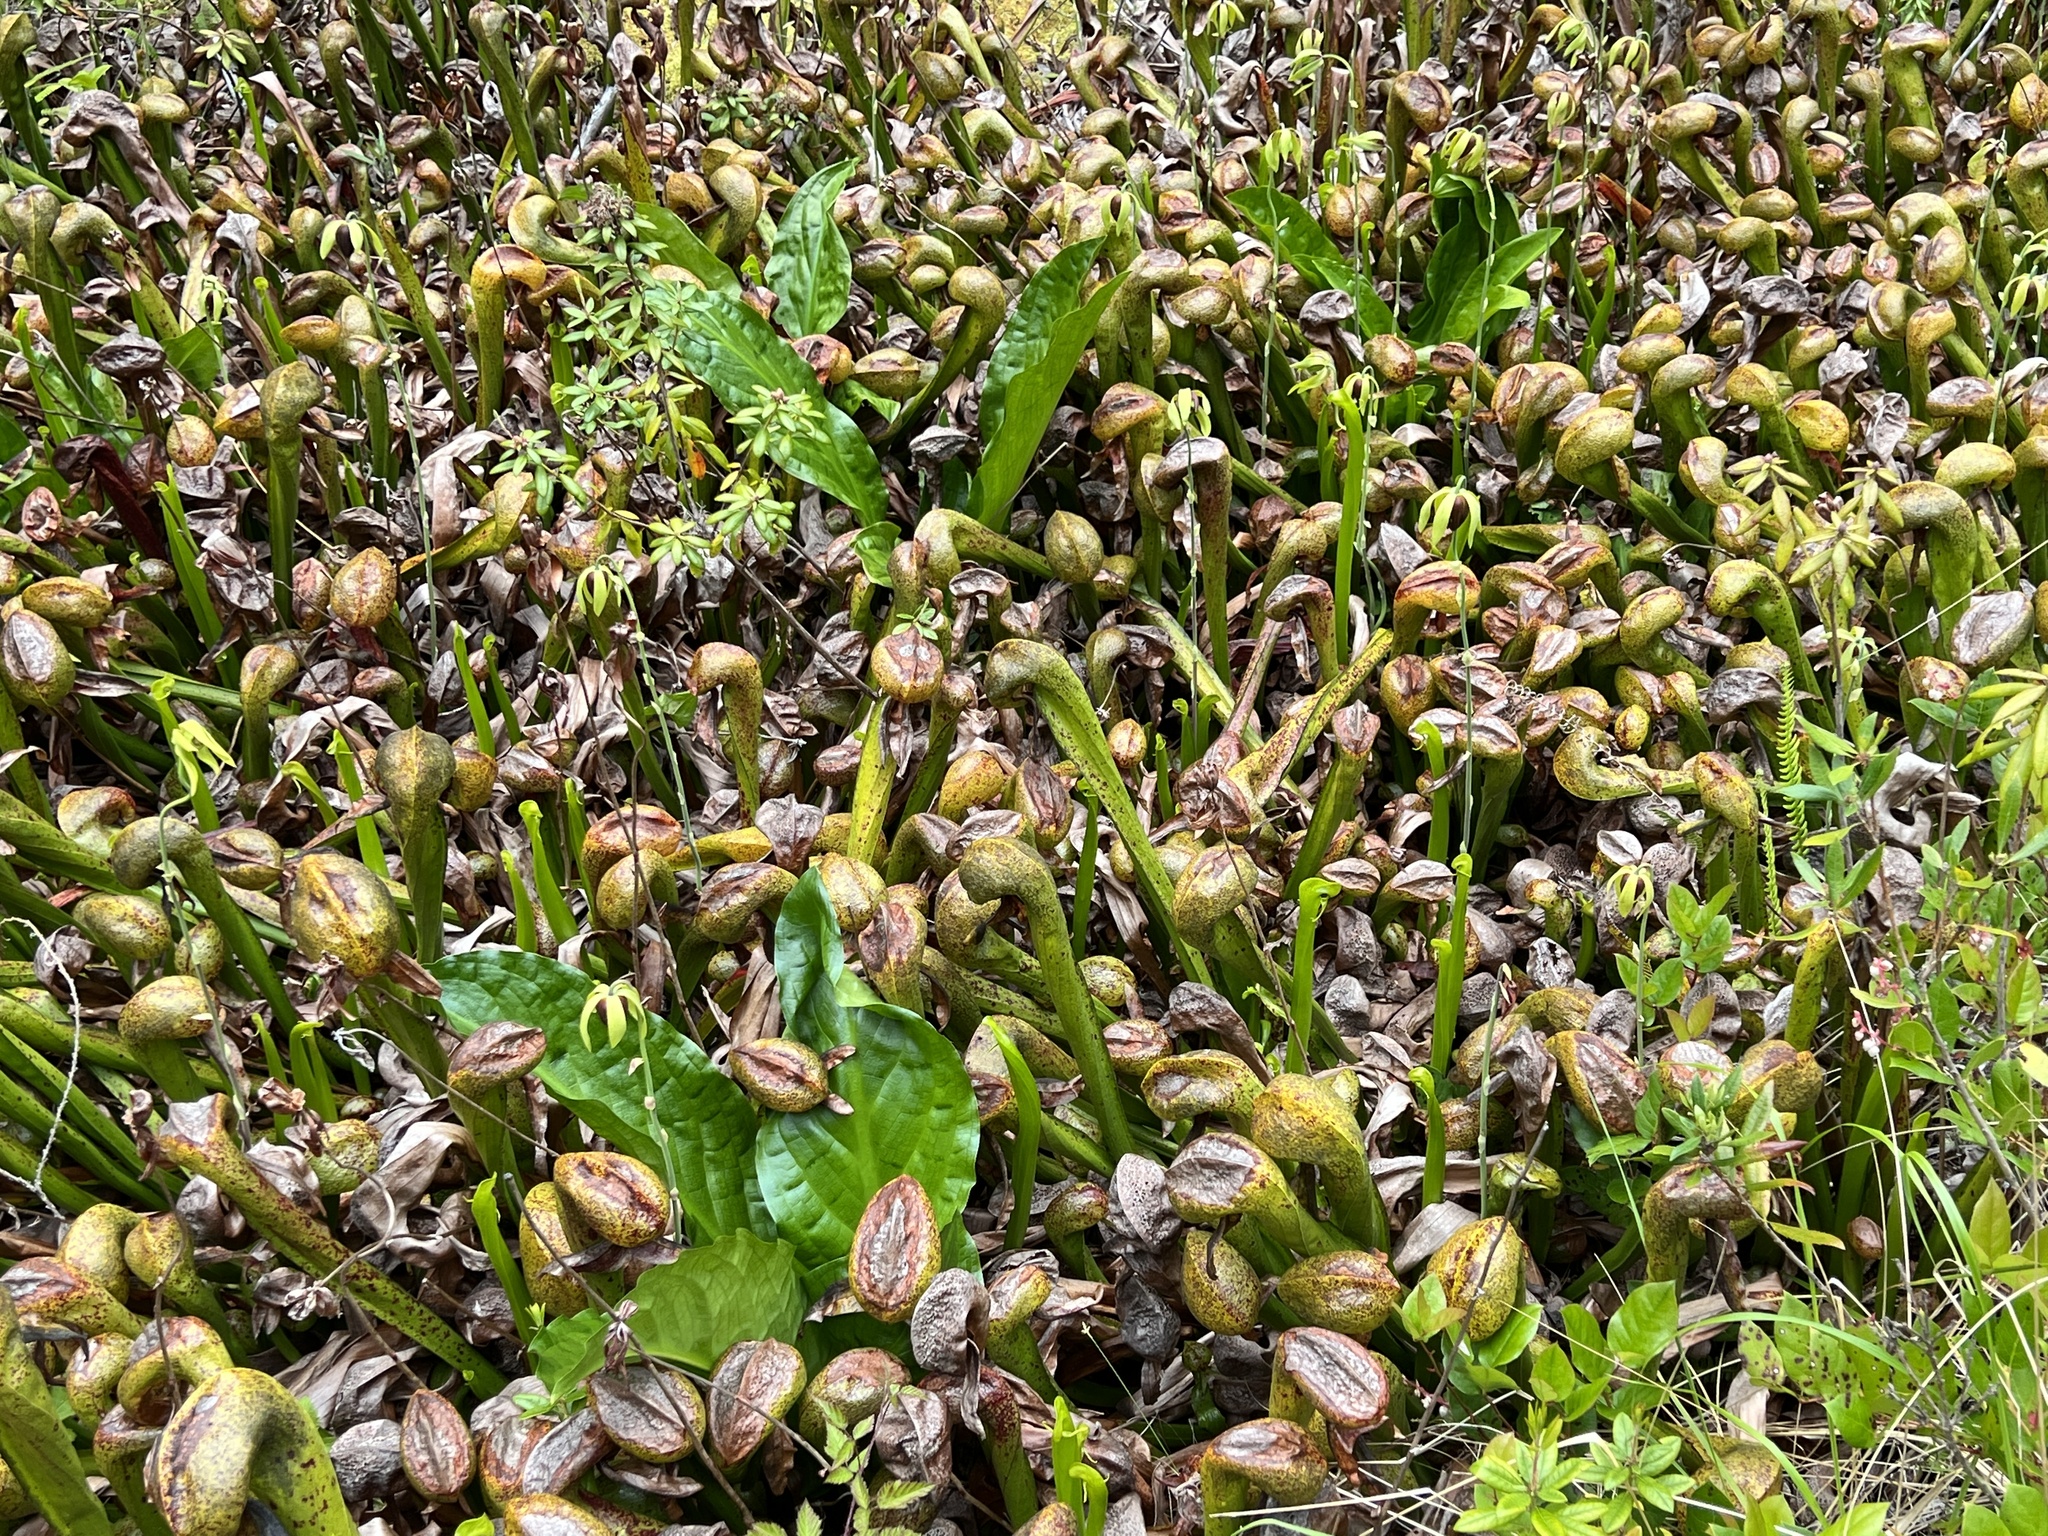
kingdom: Plantae
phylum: Tracheophyta
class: Magnoliopsida
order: Ericales
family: Sarraceniaceae
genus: Darlingtonia
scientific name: Darlingtonia californica
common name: California pitcher plant
